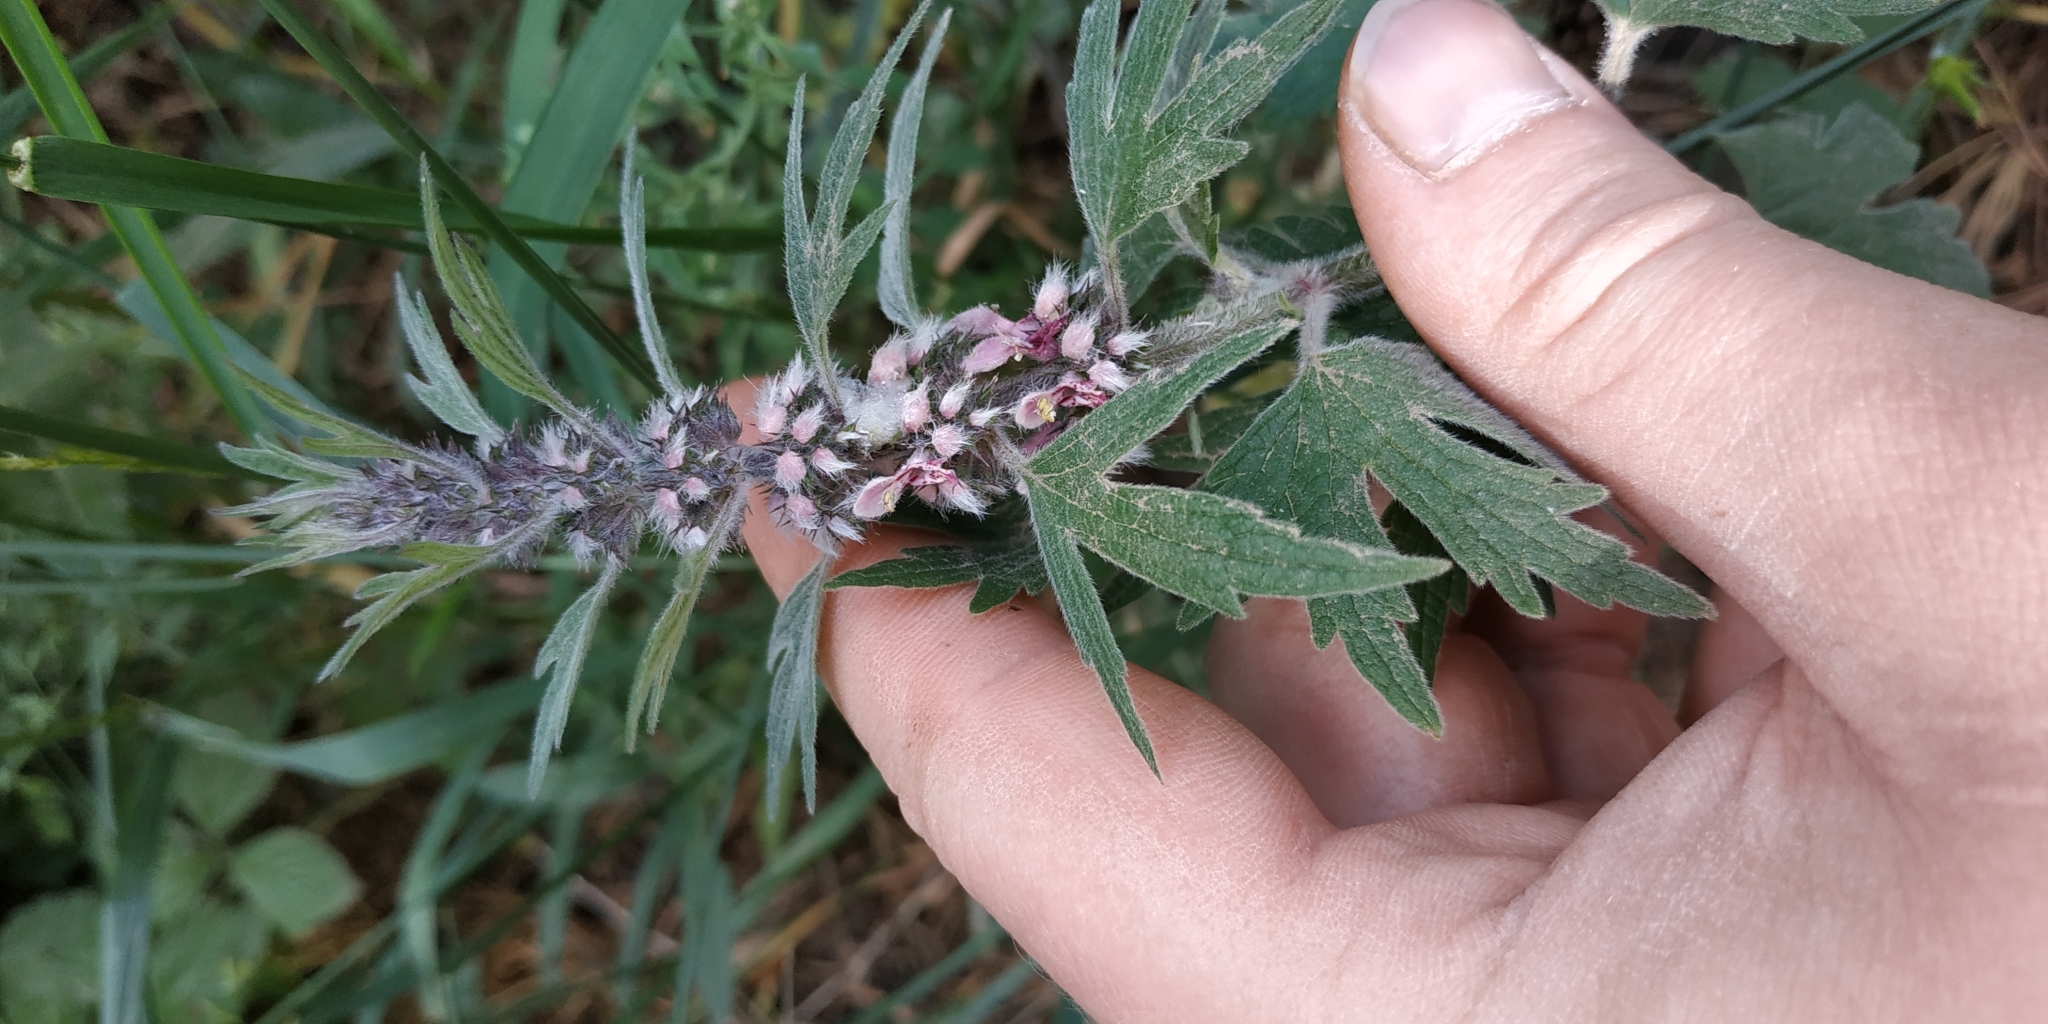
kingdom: Plantae
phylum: Tracheophyta
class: Magnoliopsida
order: Lamiales
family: Lamiaceae
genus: Leonurus
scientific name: Leonurus quinquelobatus
